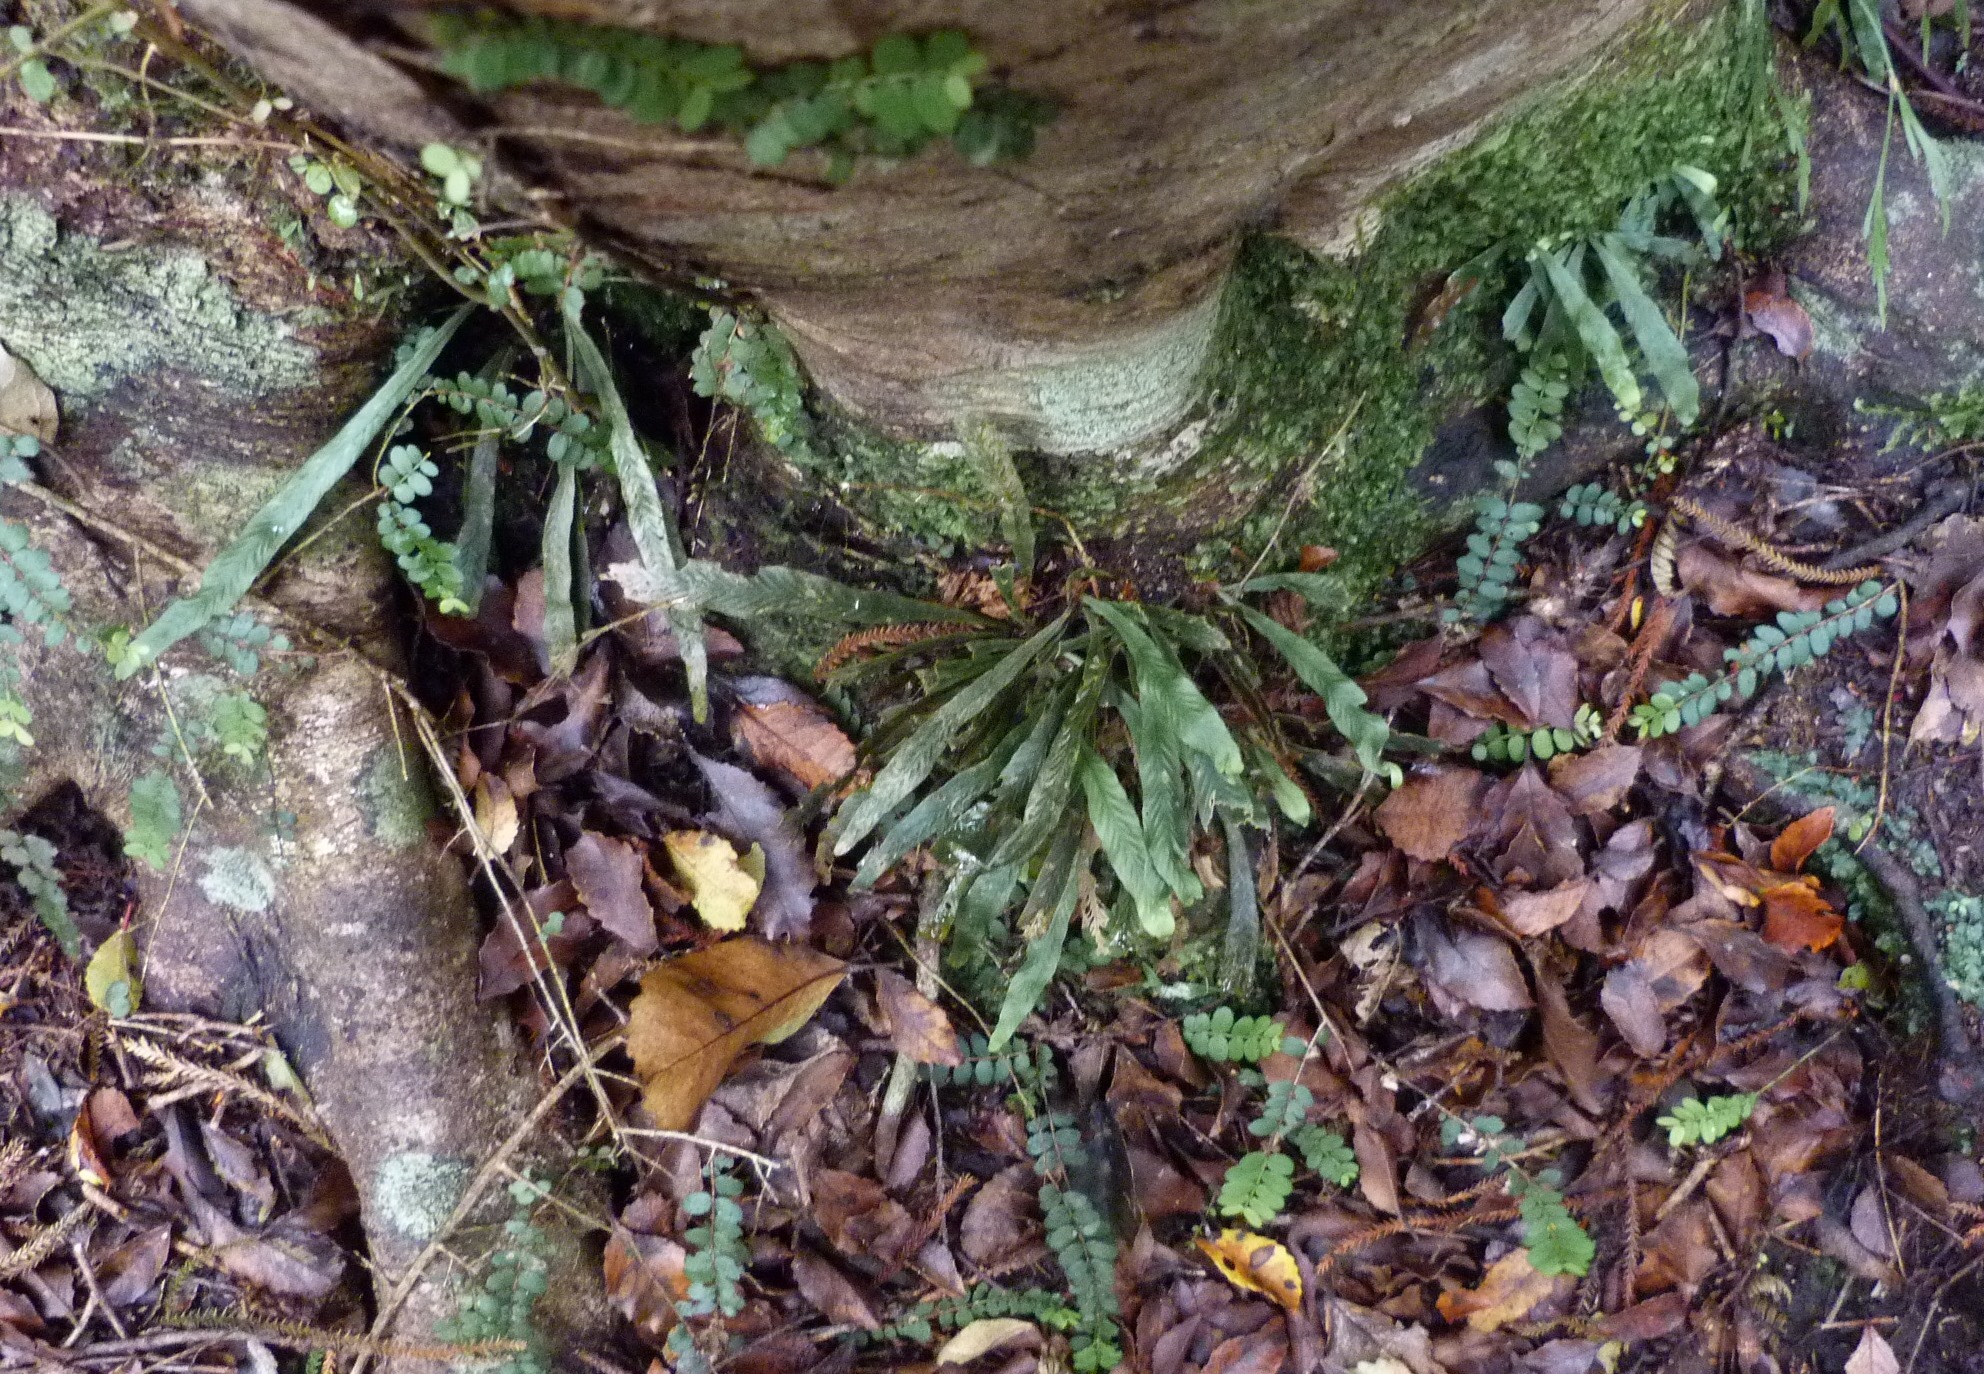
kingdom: Plantae
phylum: Tracheophyta
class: Polypodiopsida
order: Polypodiales
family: Polypodiaceae
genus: Notogrammitis
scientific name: Notogrammitis billardierei
